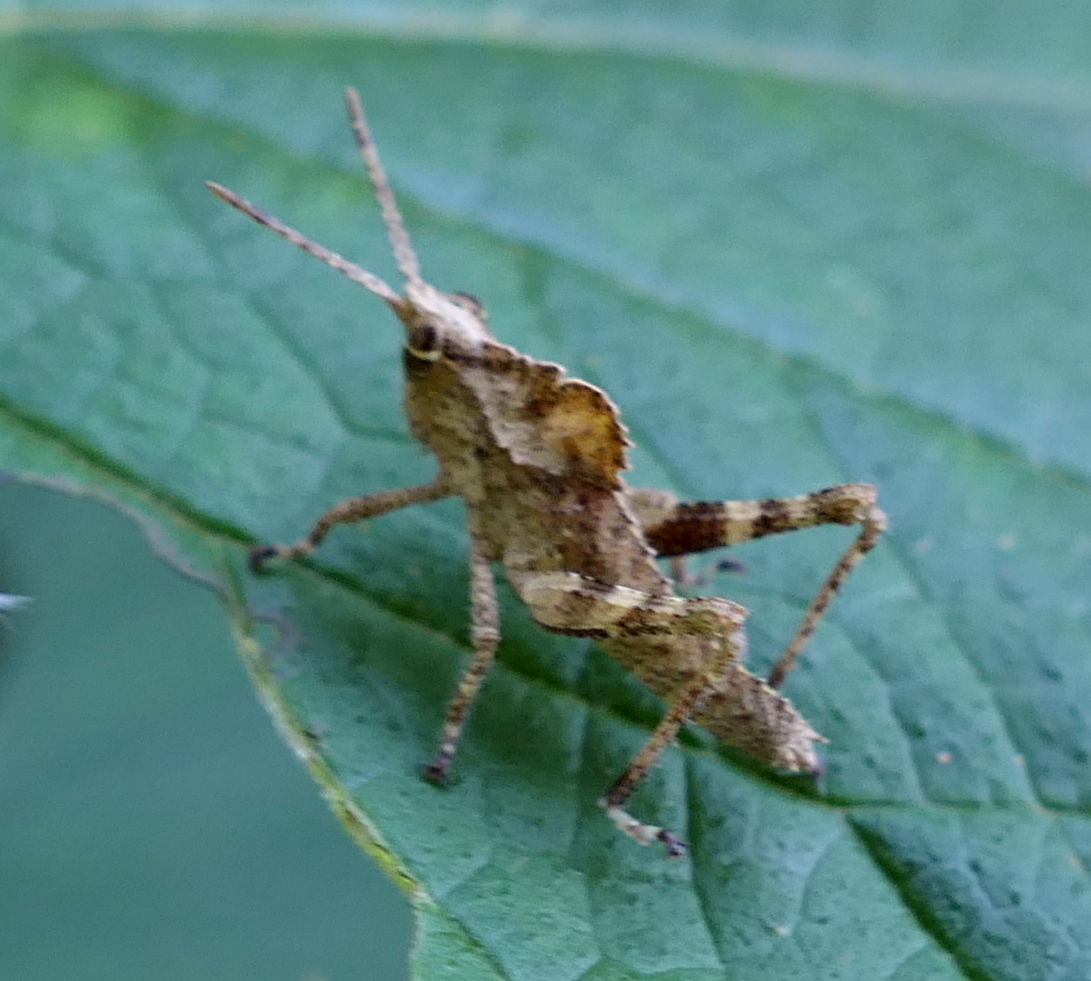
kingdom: Animalia
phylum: Arthropoda
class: Insecta
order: Orthoptera
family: Romaleidae
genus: Helionotus
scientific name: Helionotus mirabilis
